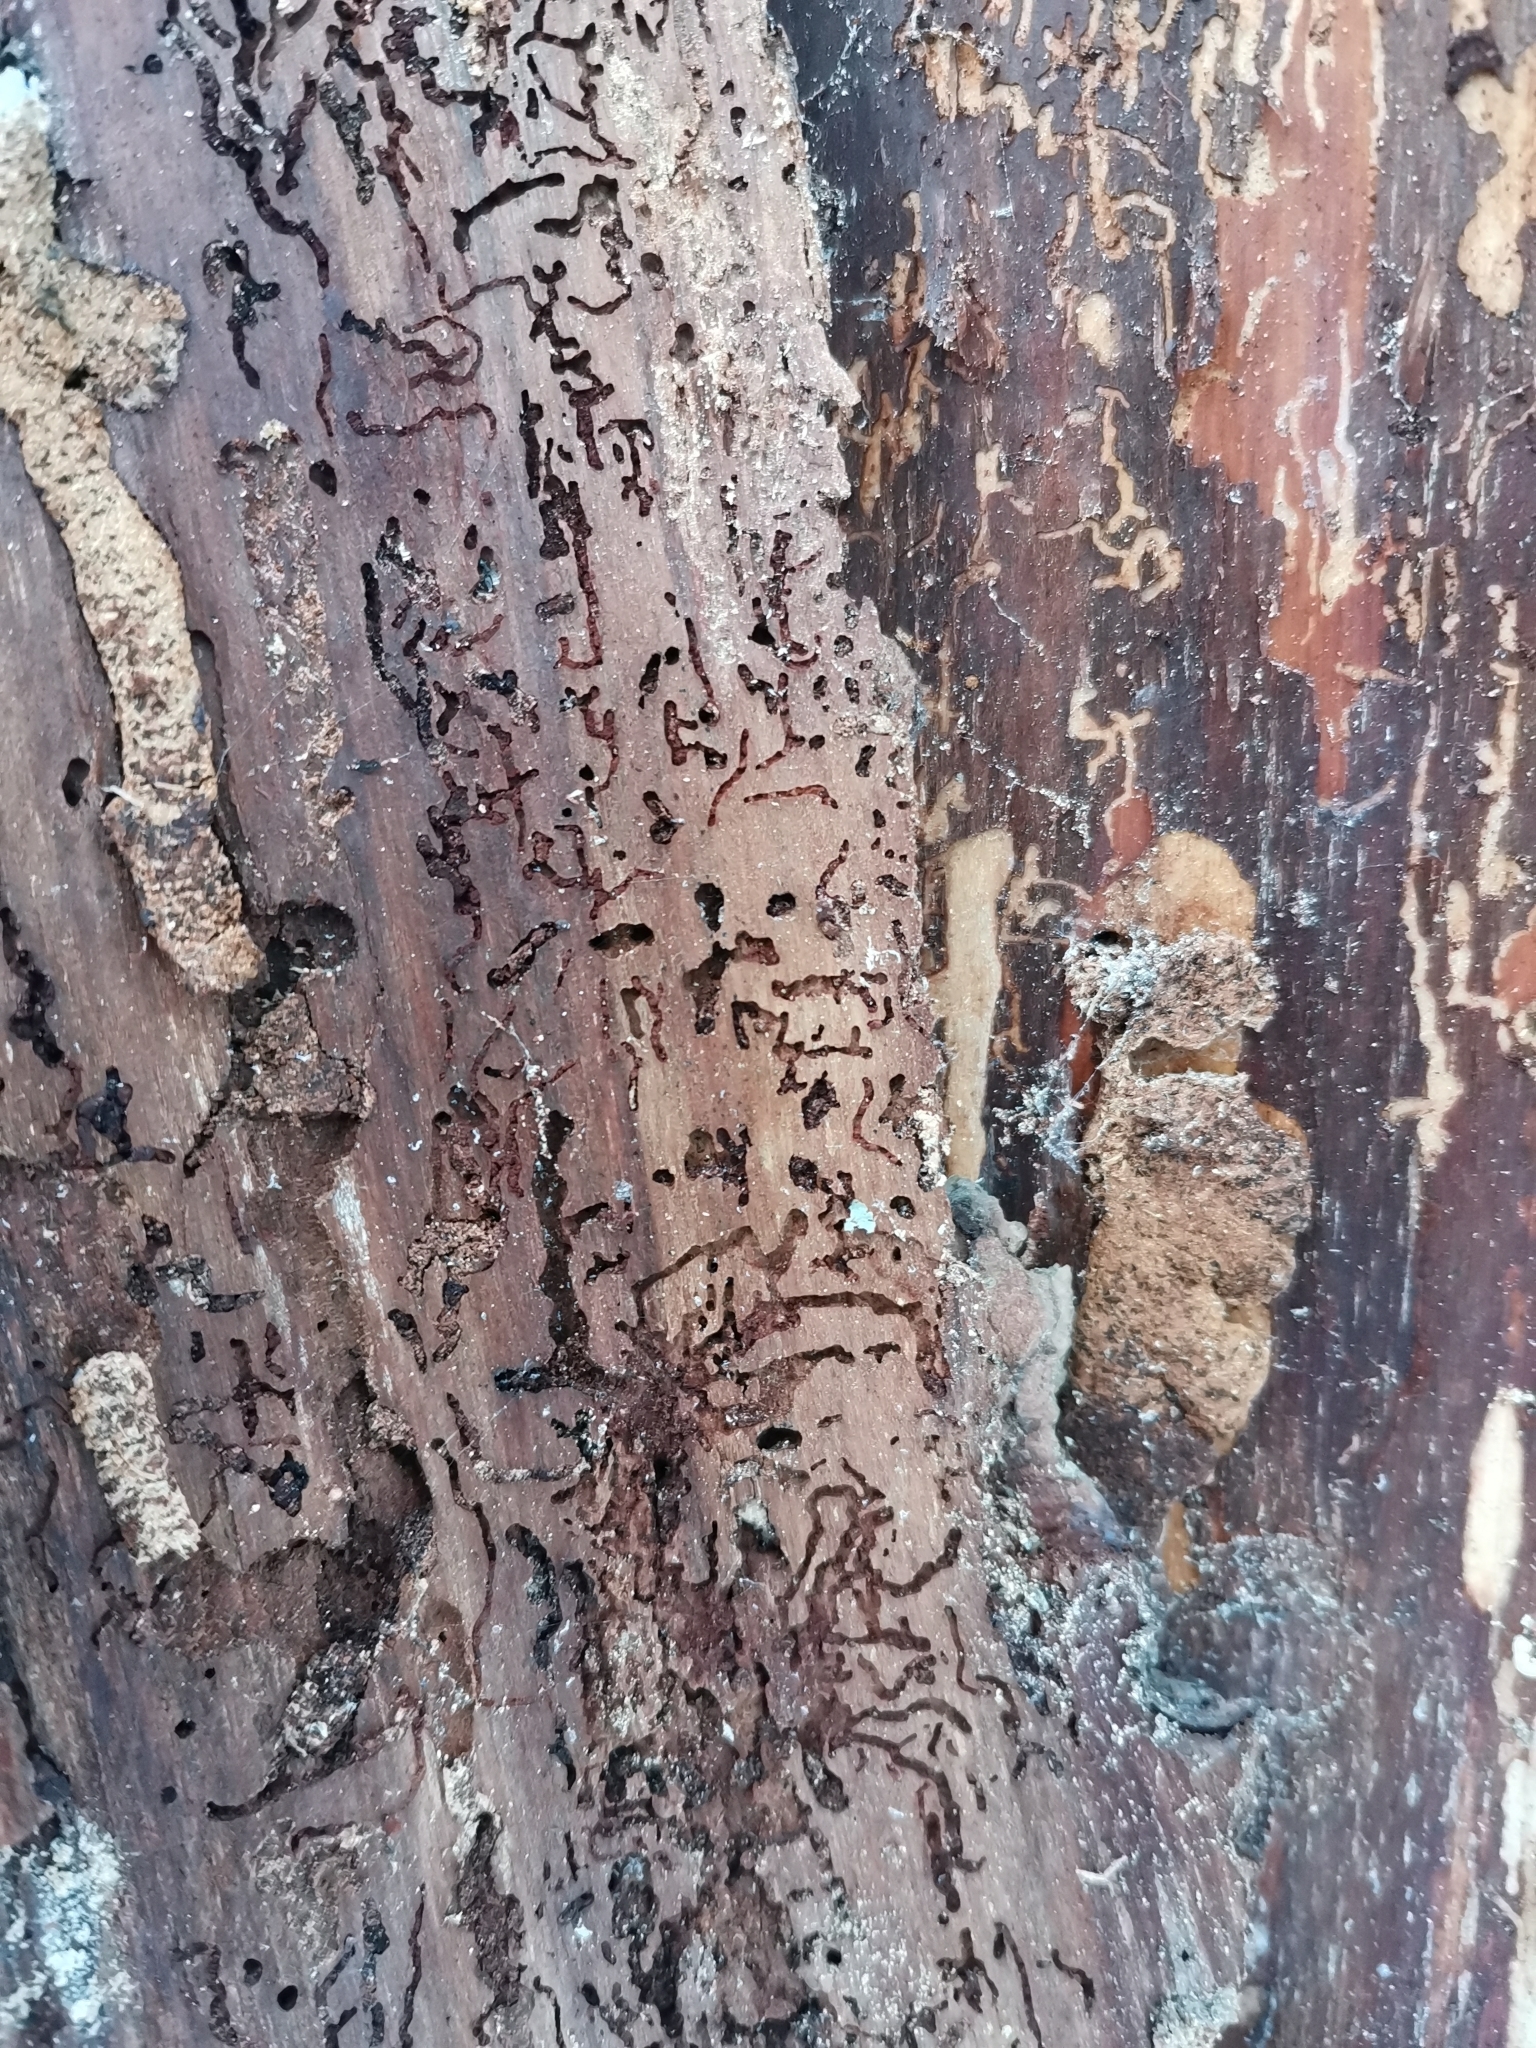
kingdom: Animalia
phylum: Arthropoda
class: Insecta
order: Coleoptera
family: Curculionidae
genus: Ips
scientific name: Ips typographus
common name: Eight-toothed spruce bark beetle
